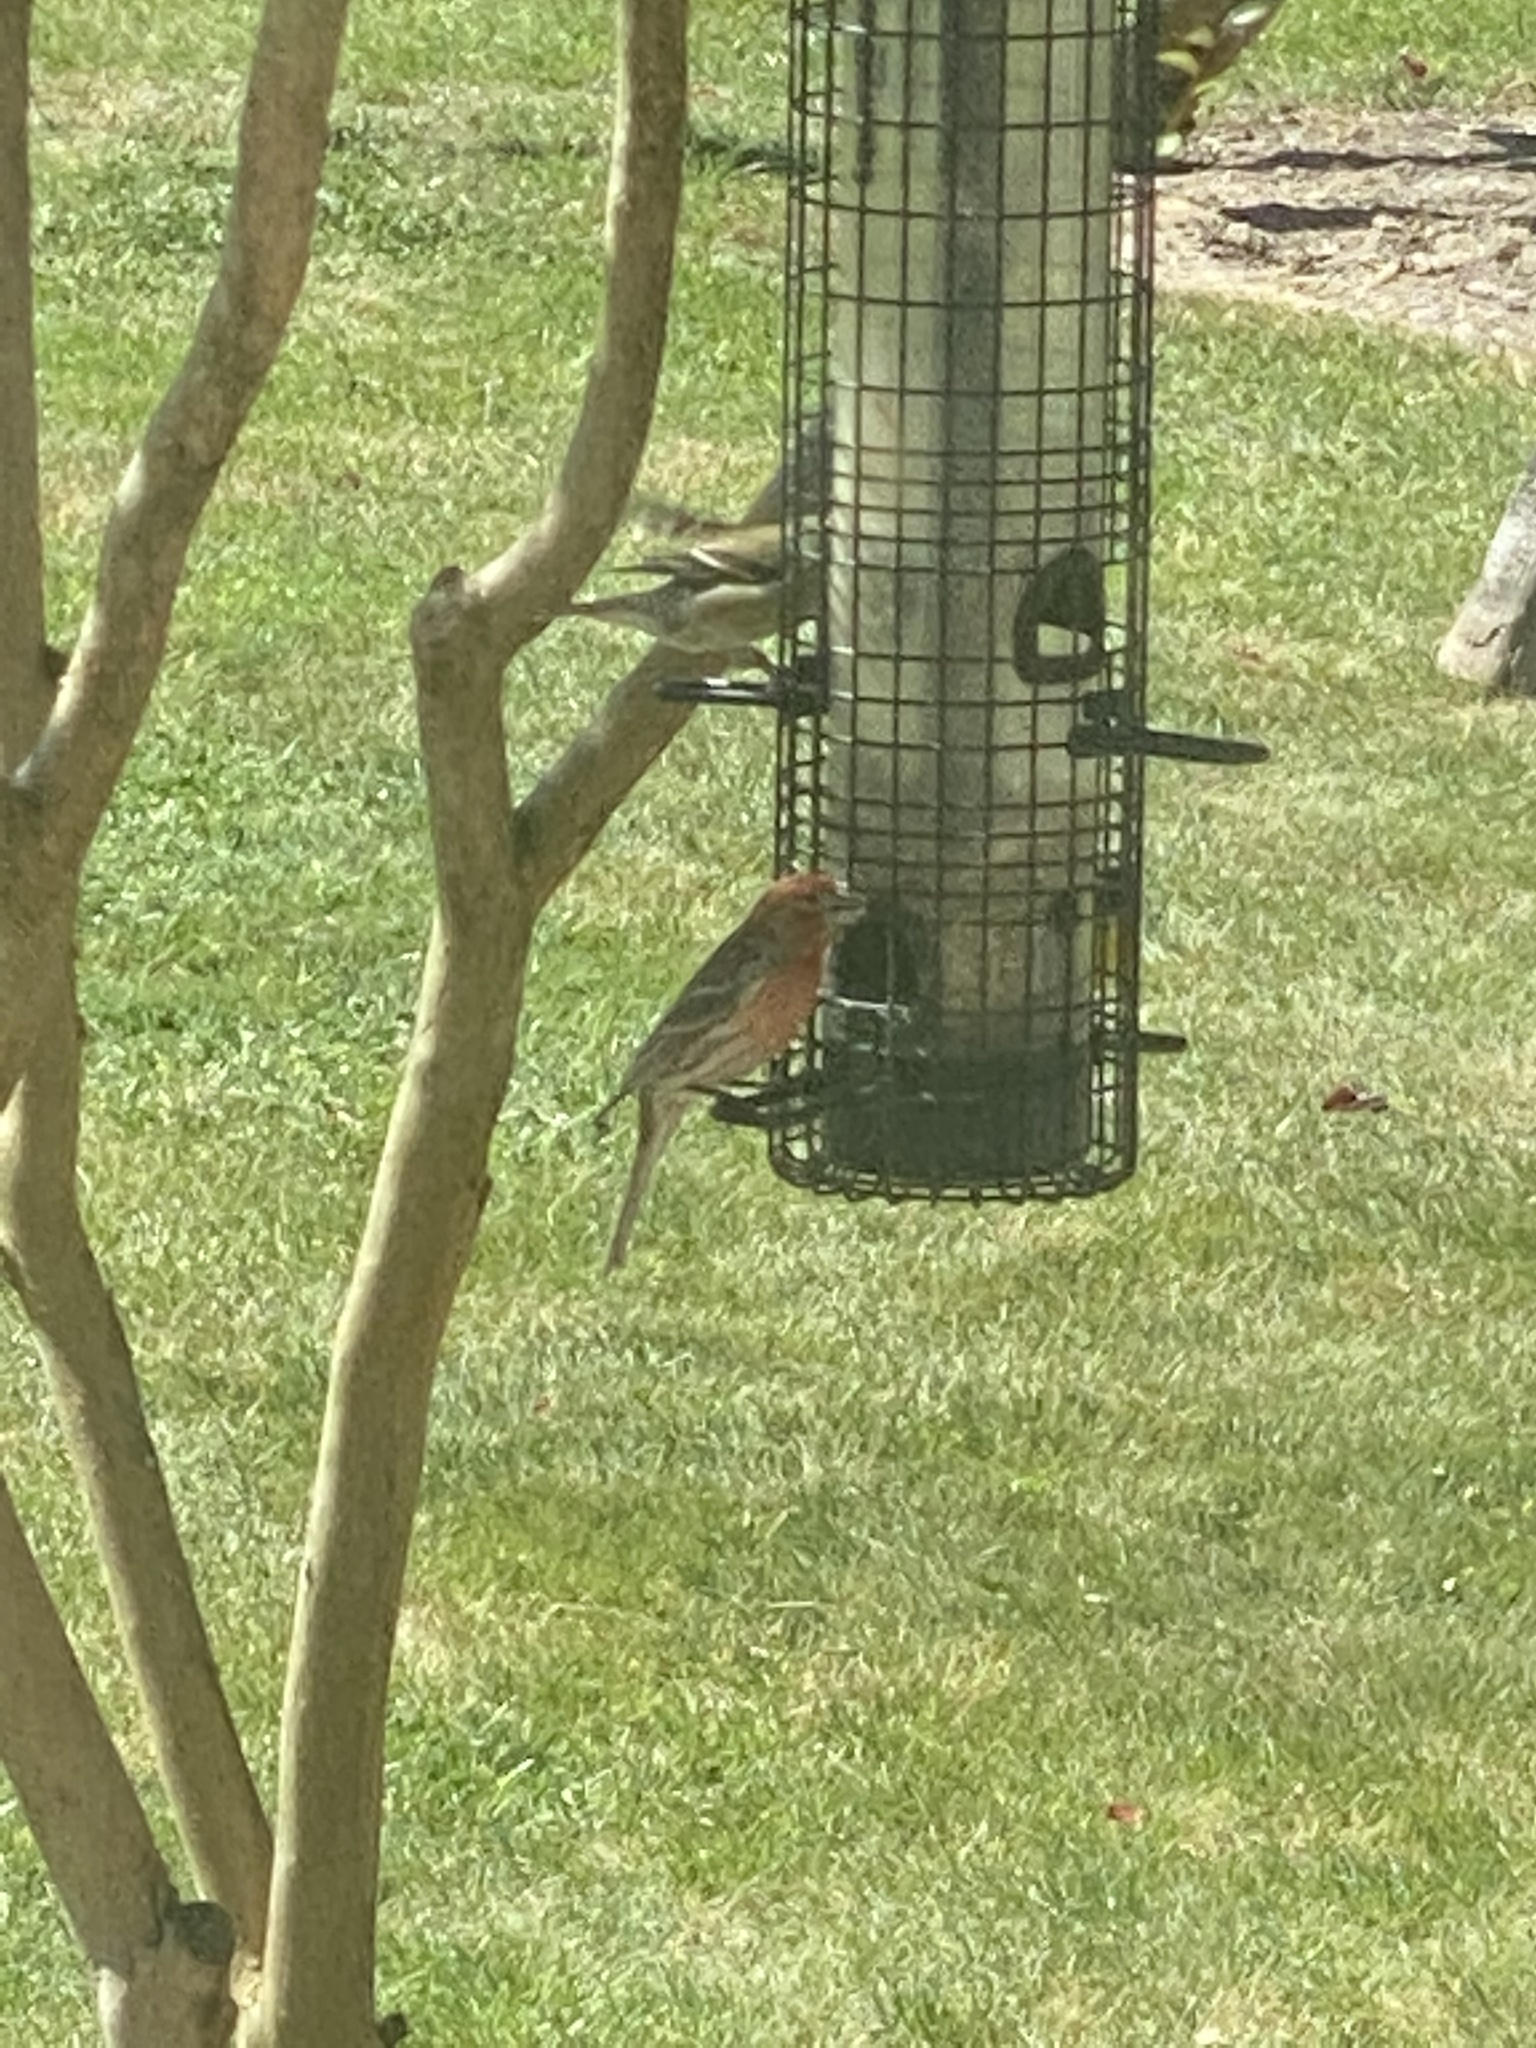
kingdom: Animalia
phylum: Chordata
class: Aves
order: Passeriformes
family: Fringillidae
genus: Haemorhous
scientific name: Haemorhous mexicanus
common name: House finch
